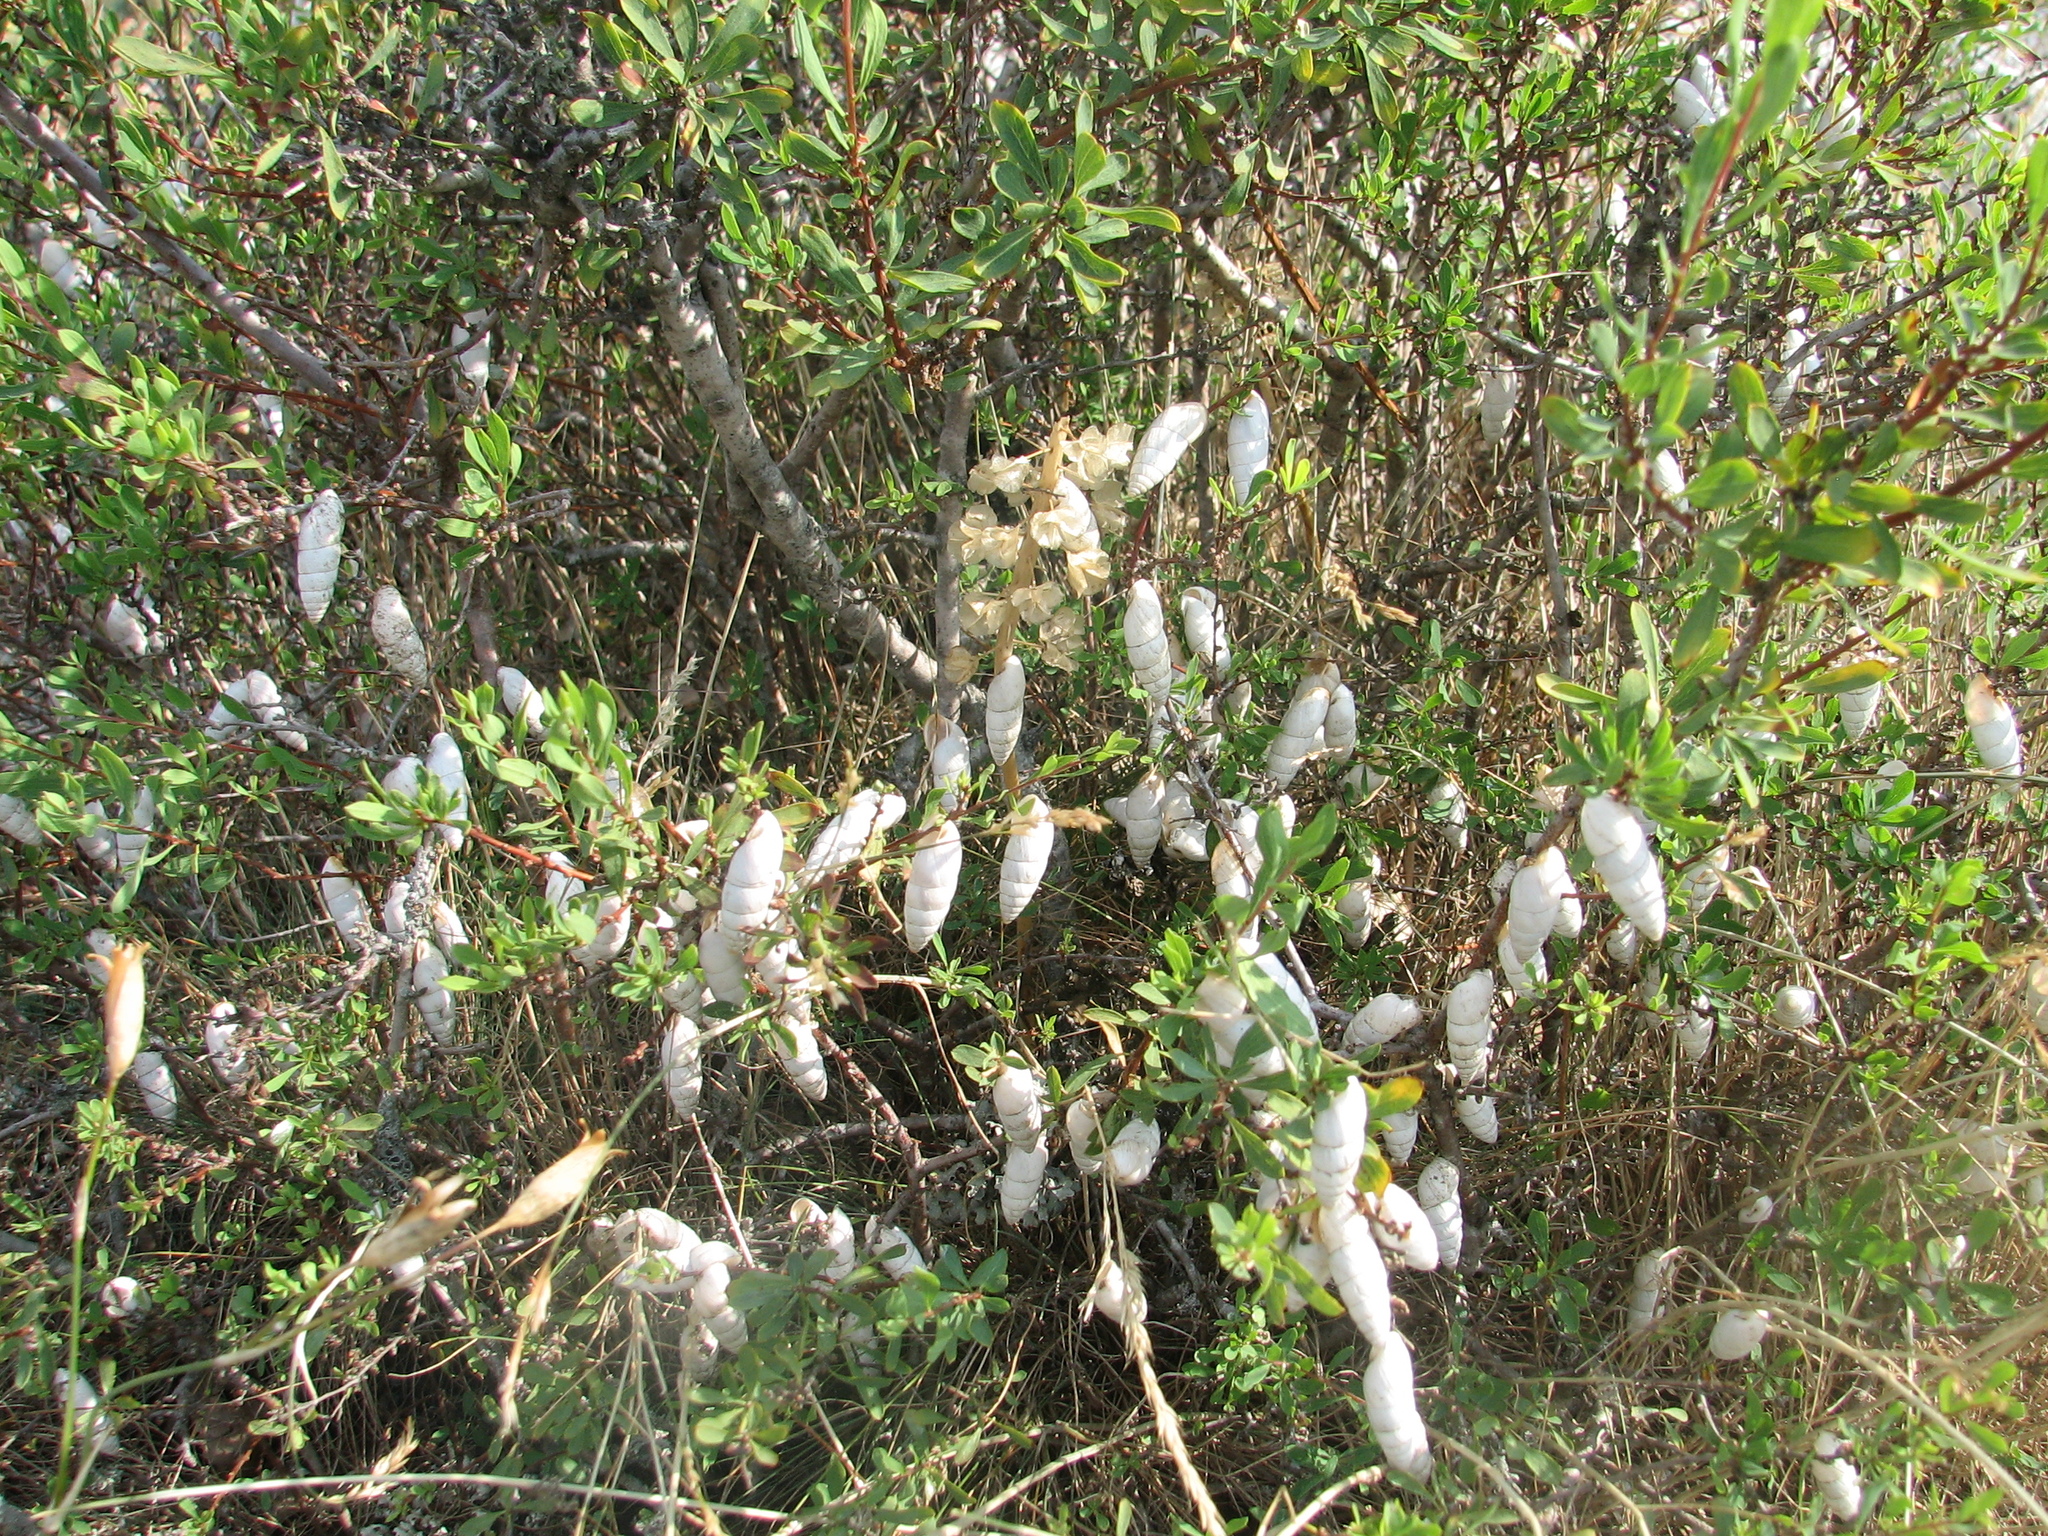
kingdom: Plantae
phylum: Tracheophyta
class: Magnoliopsida
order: Caryophyllales
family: Caryophyllaceae
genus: Dianthus
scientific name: Dianthus marschallii
